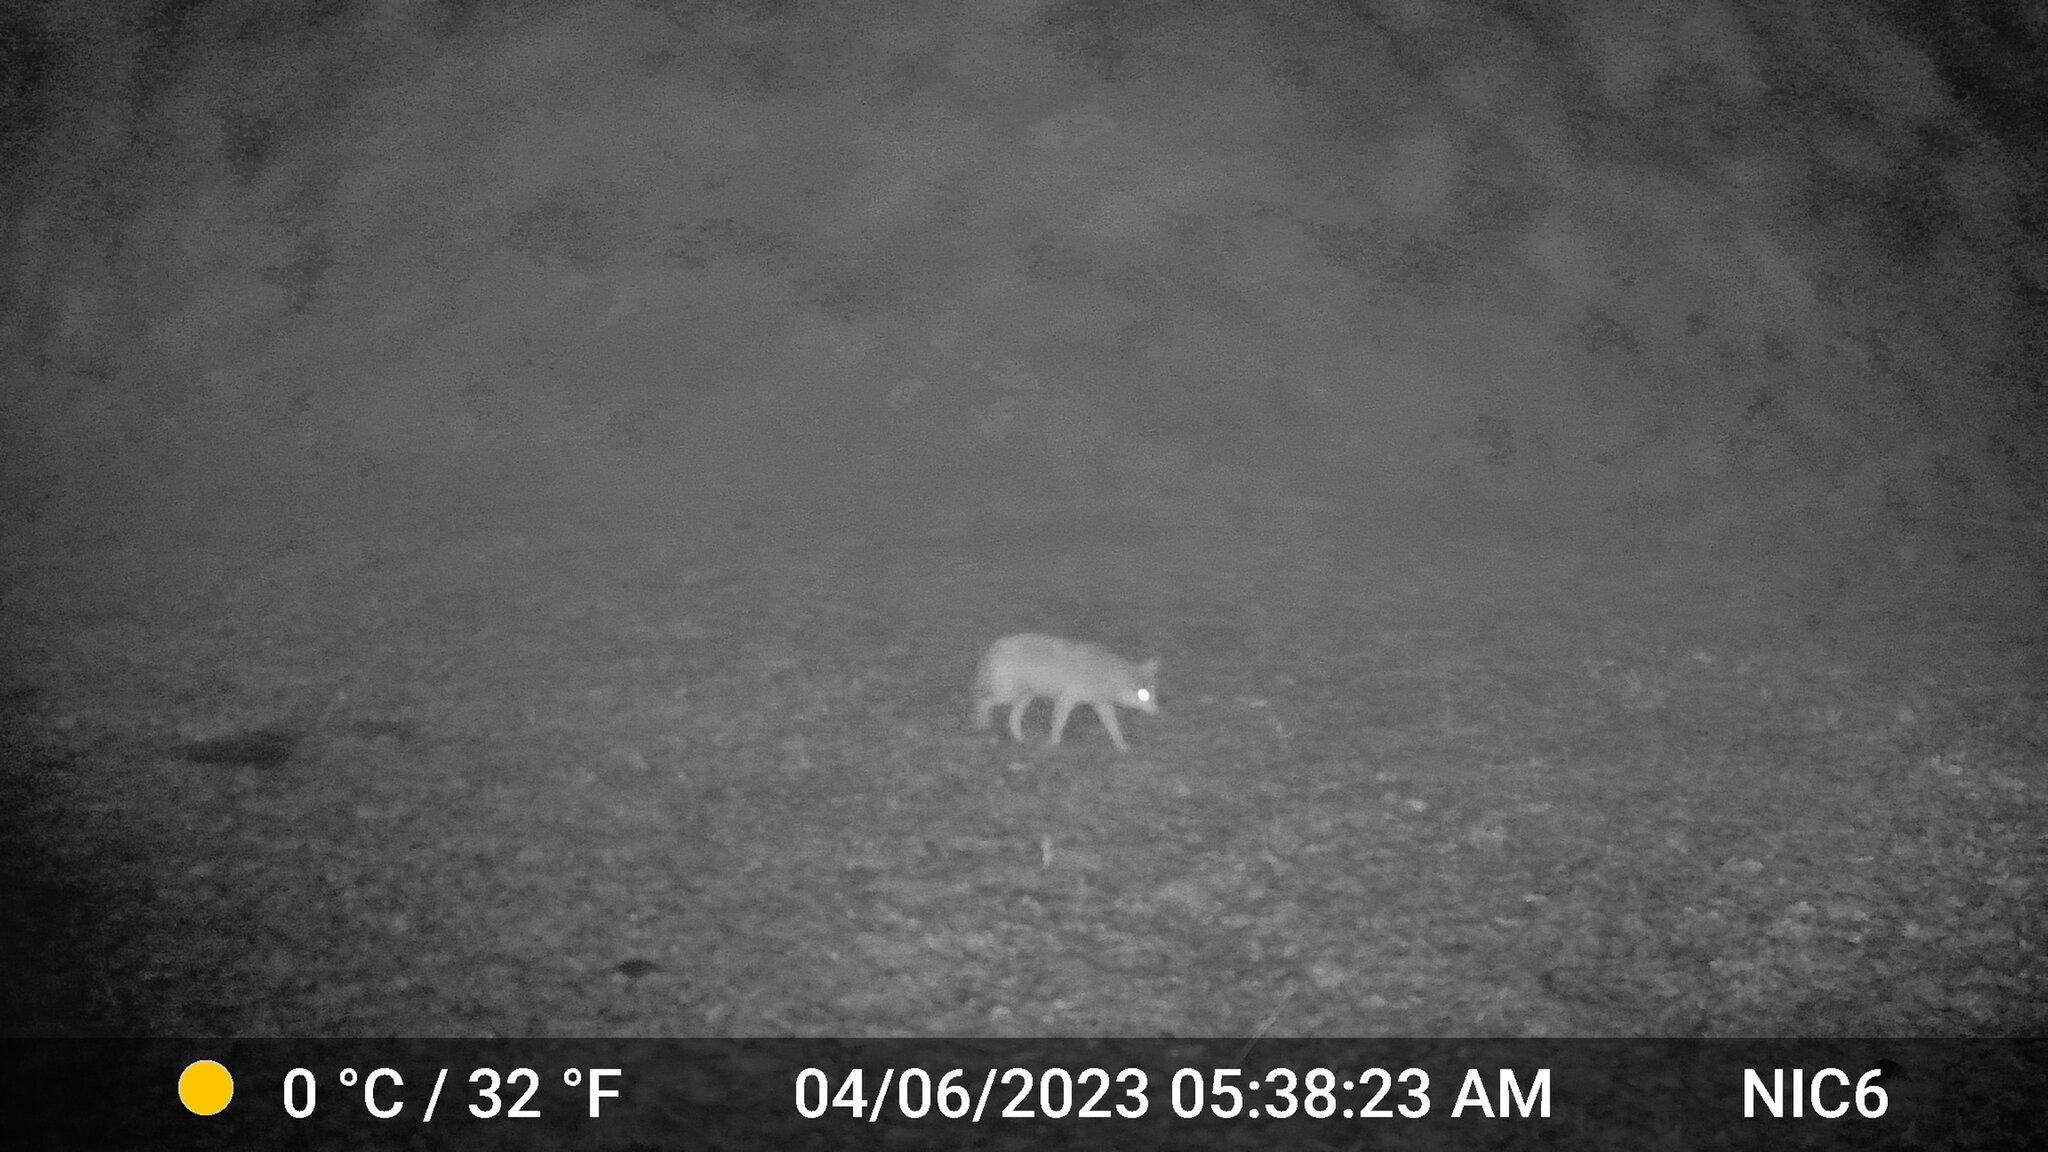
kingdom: Animalia
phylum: Chordata
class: Mammalia
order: Carnivora
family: Canidae
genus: Canis
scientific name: Canis latrans
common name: Coyote
